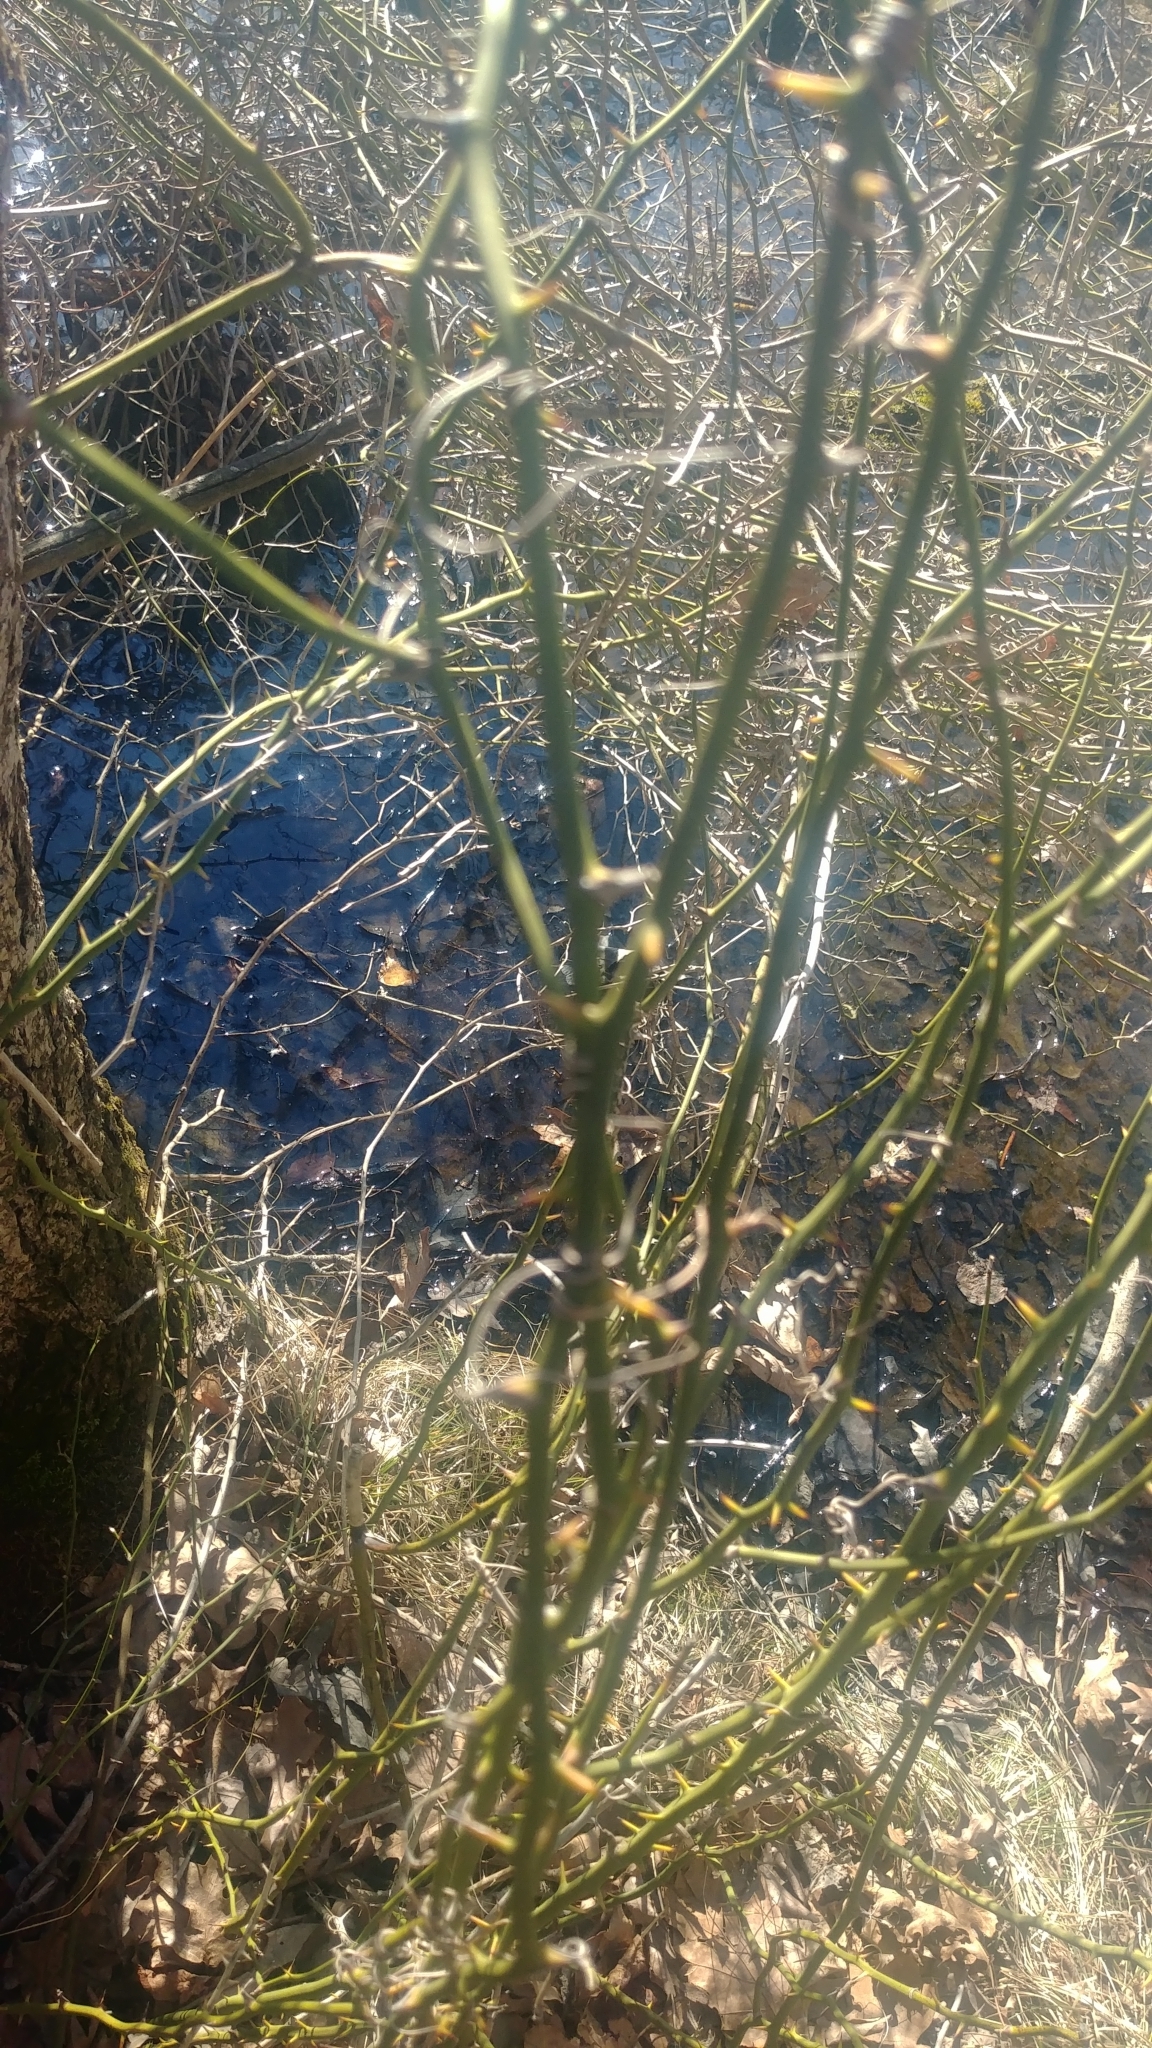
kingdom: Plantae
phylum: Tracheophyta
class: Liliopsida
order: Liliales
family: Smilacaceae
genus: Smilax
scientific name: Smilax rotundifolia
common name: Bullbriar
